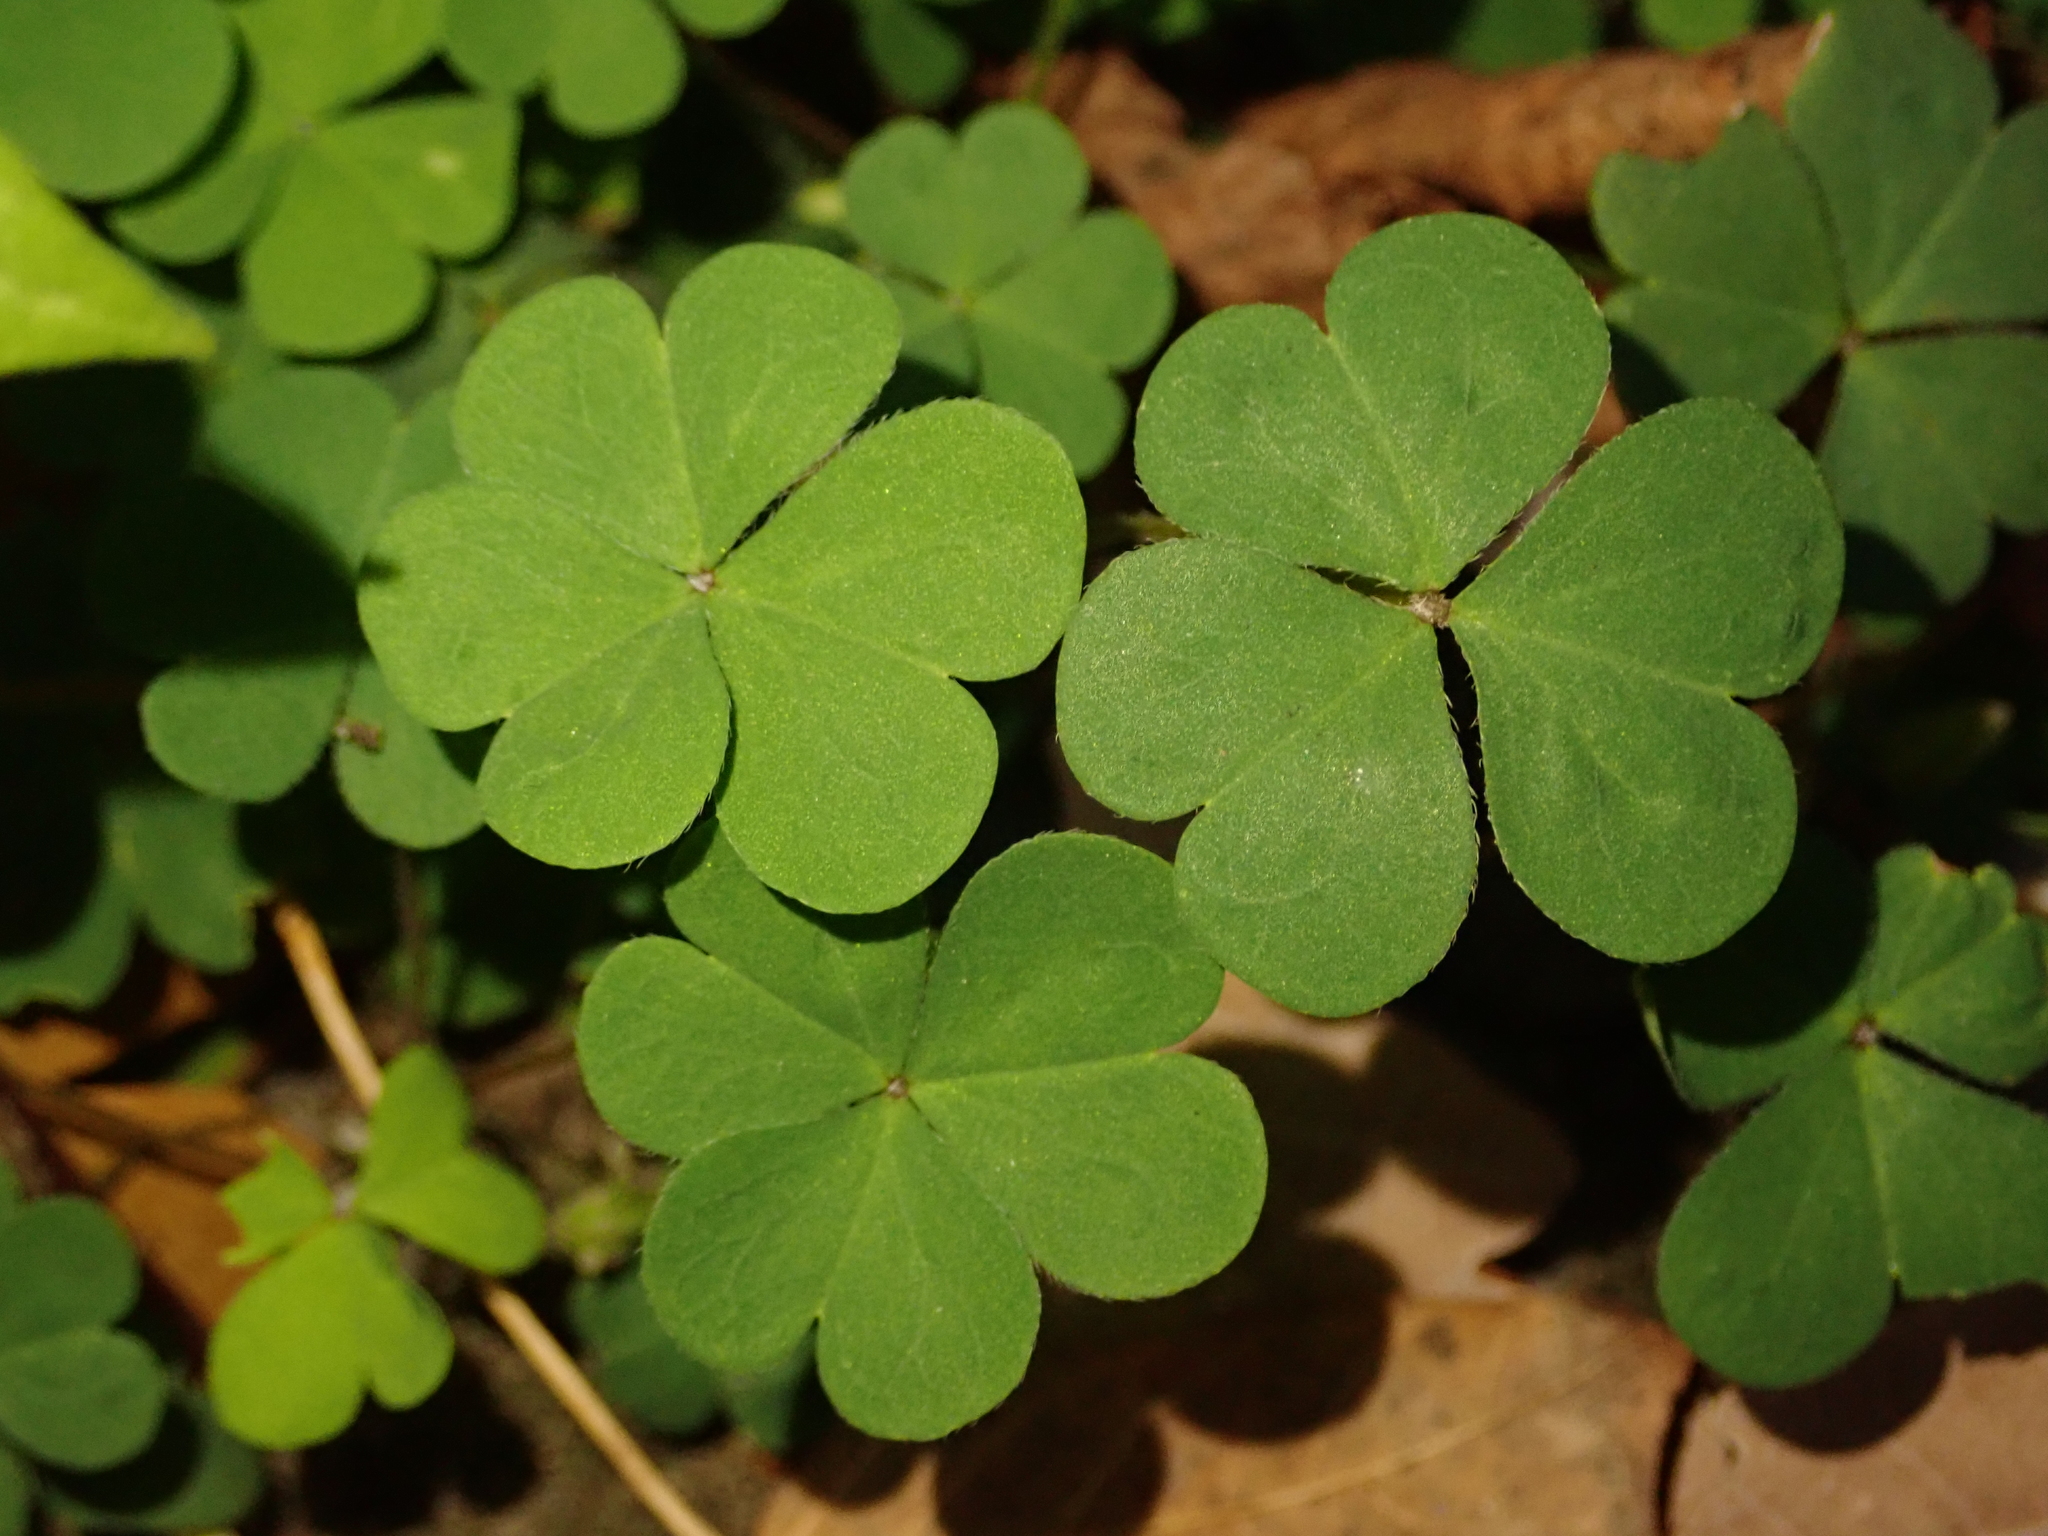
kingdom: Plantae
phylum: Tracheophyta
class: Magnoliopsida
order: Oxalidales
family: Oxalidaceae
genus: Oxalis
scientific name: Oxalis corniculata
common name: Procumbent yellow-sorrel
